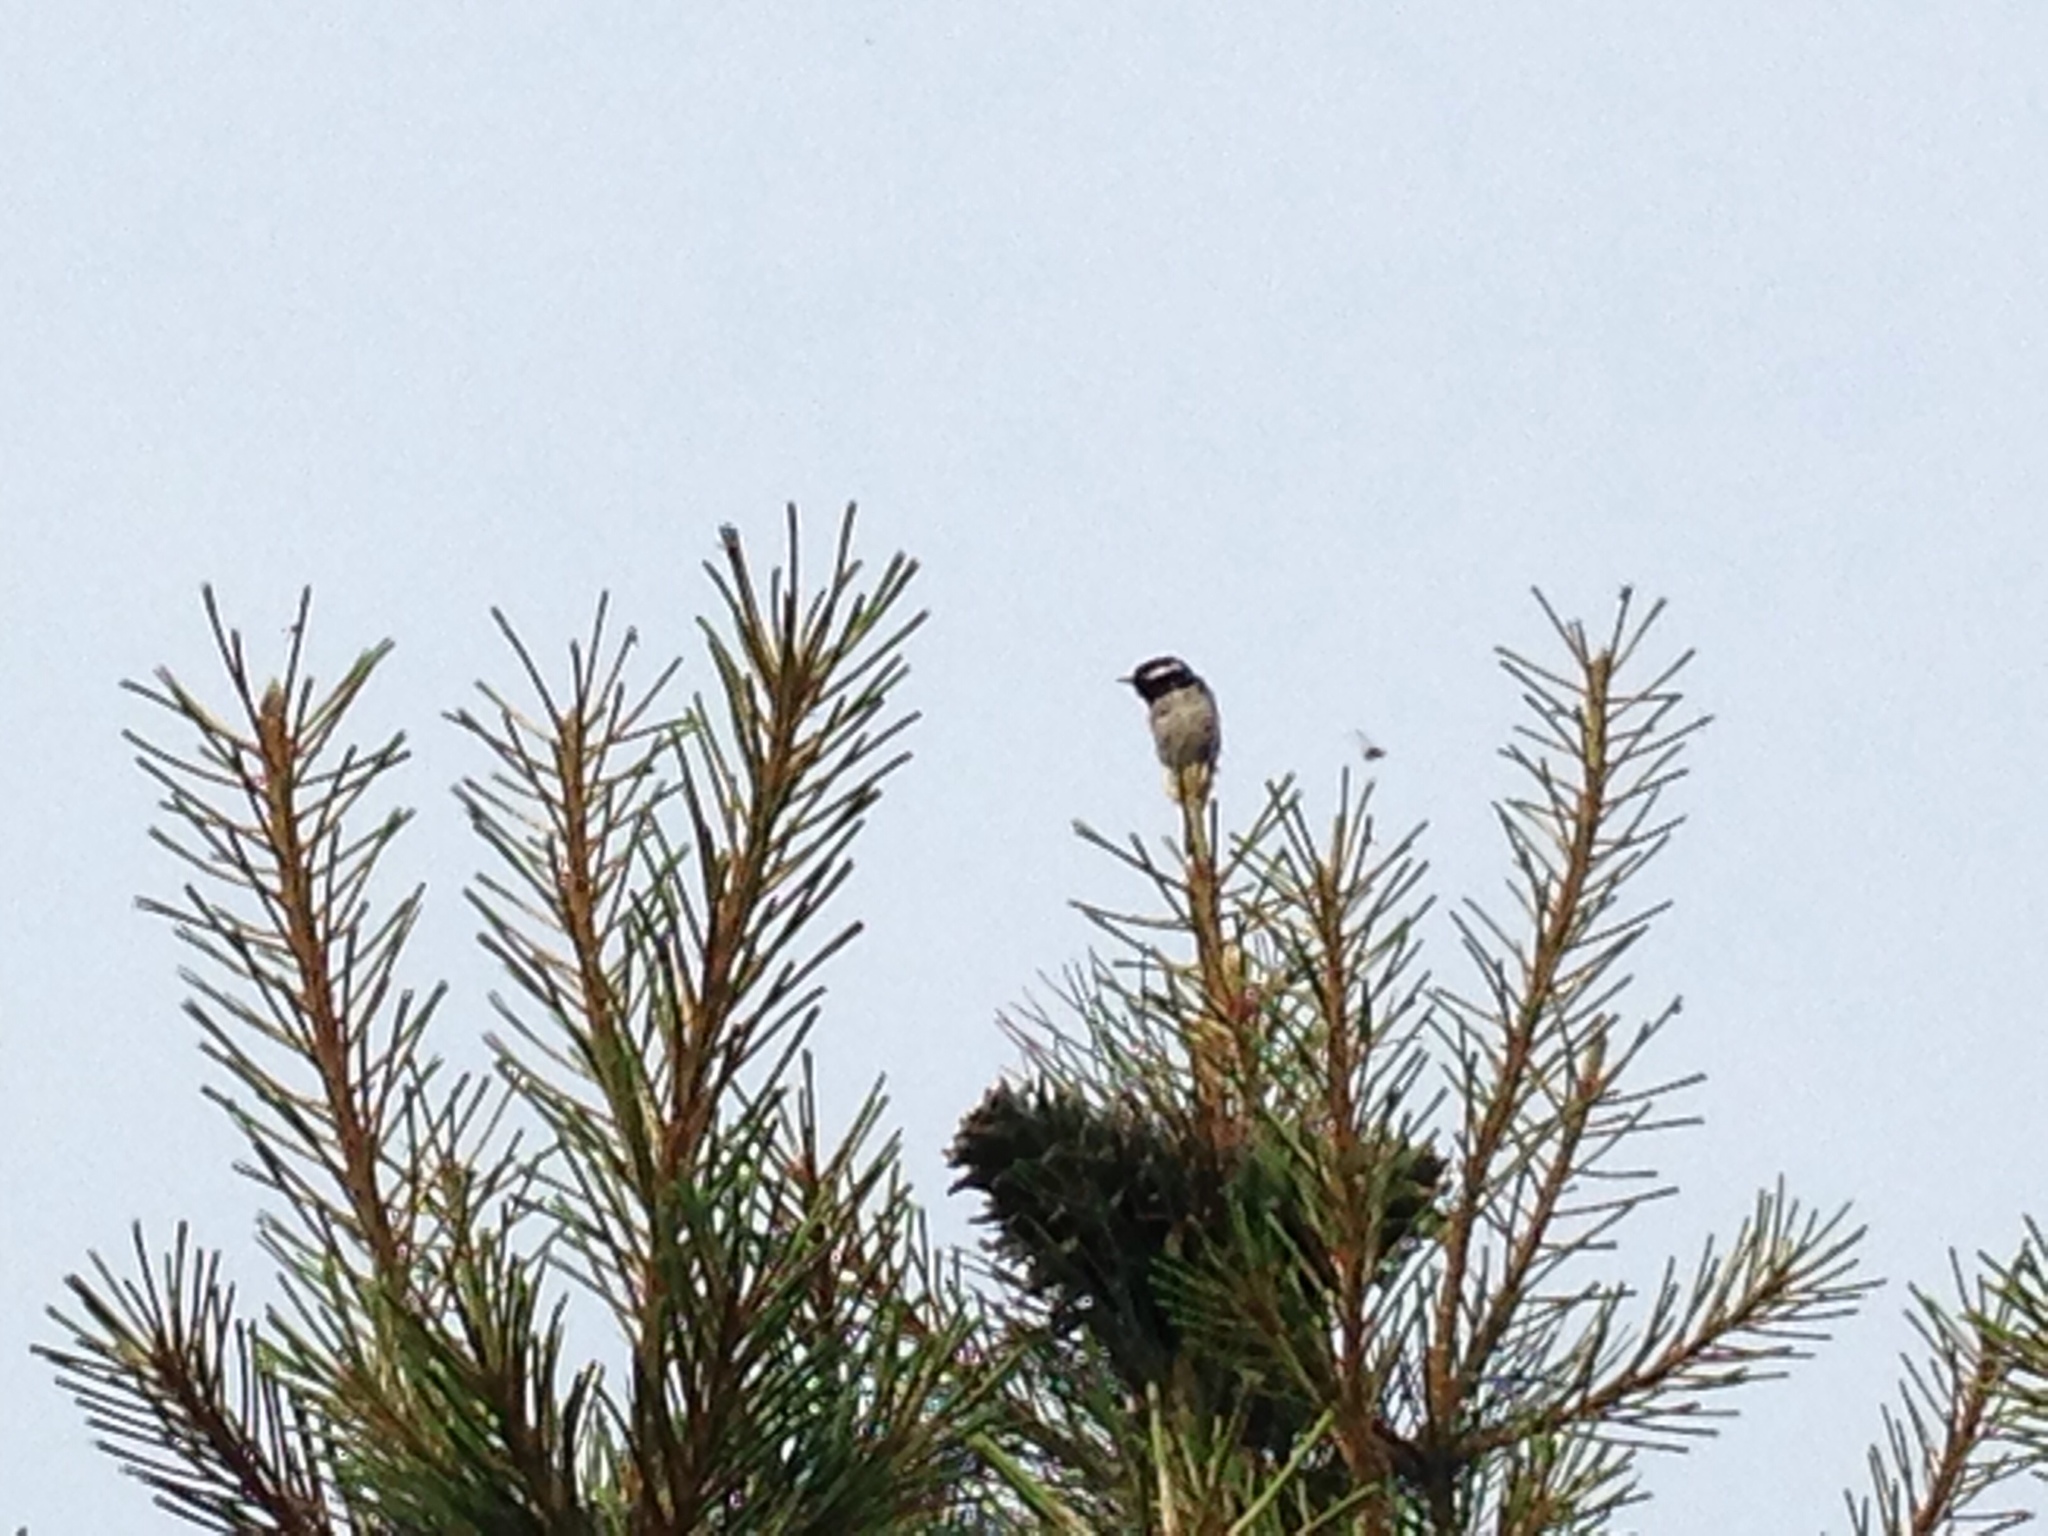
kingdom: Animalia
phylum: Chordata
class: Aves
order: Passeriformes
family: Paridae
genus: Periparus
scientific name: Periparus ater
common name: Coal tit
